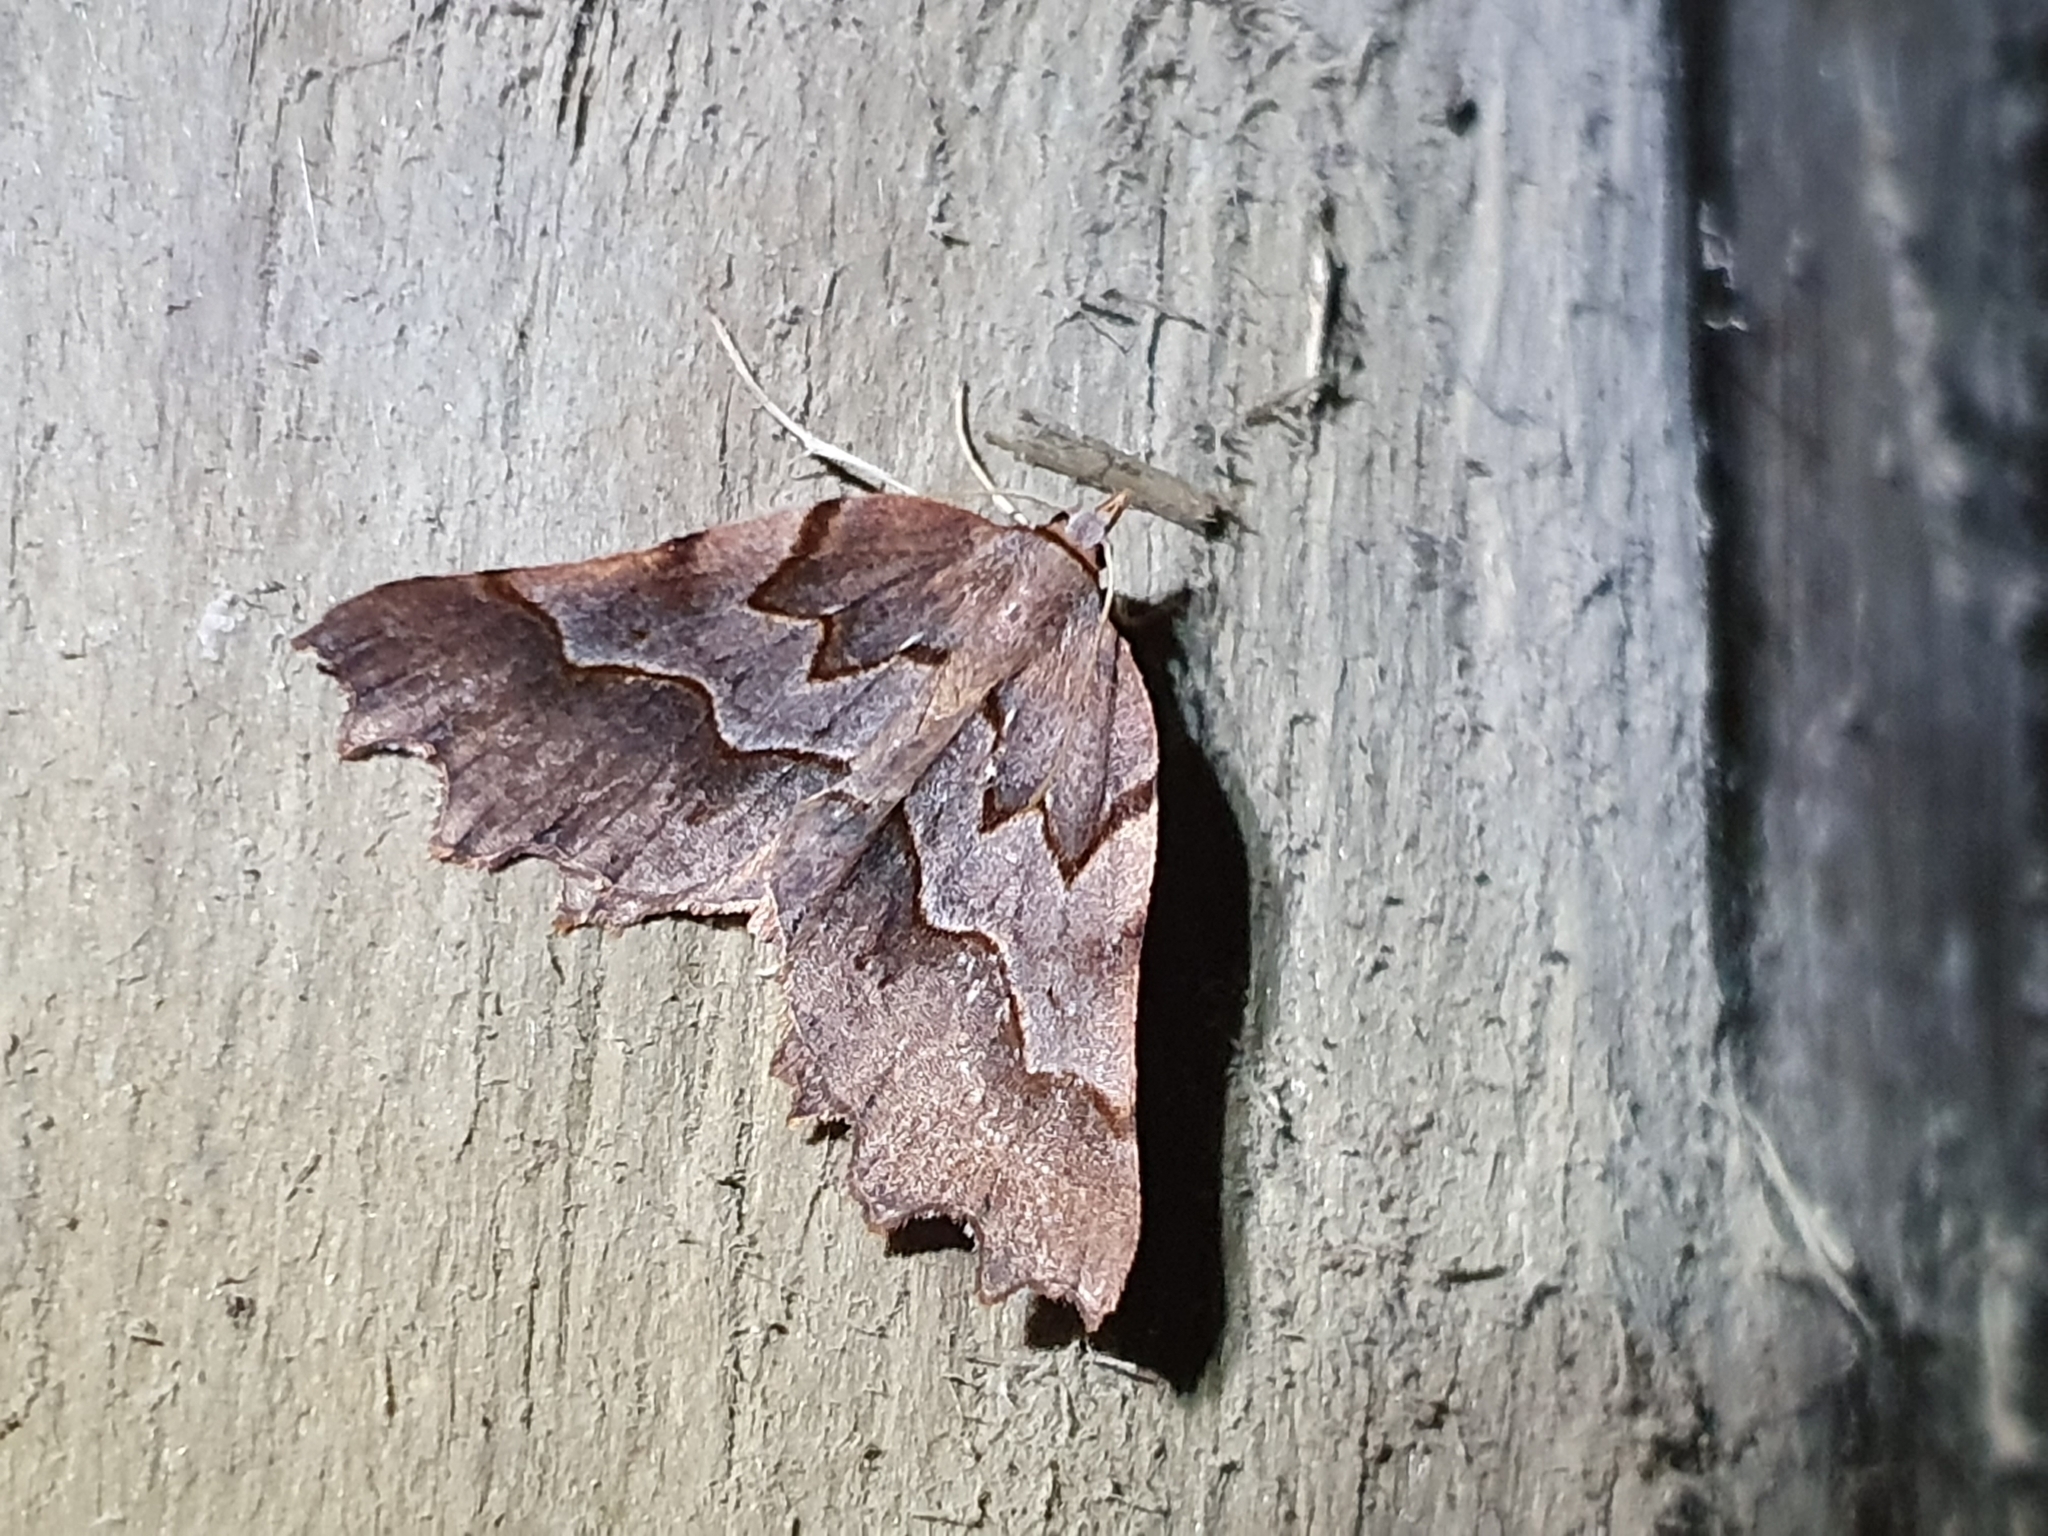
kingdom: Animalia
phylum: Arthropoda
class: Insecta
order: Lepidoptera
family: Geometridae
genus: Ischalis
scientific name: Ischalis fortinata
